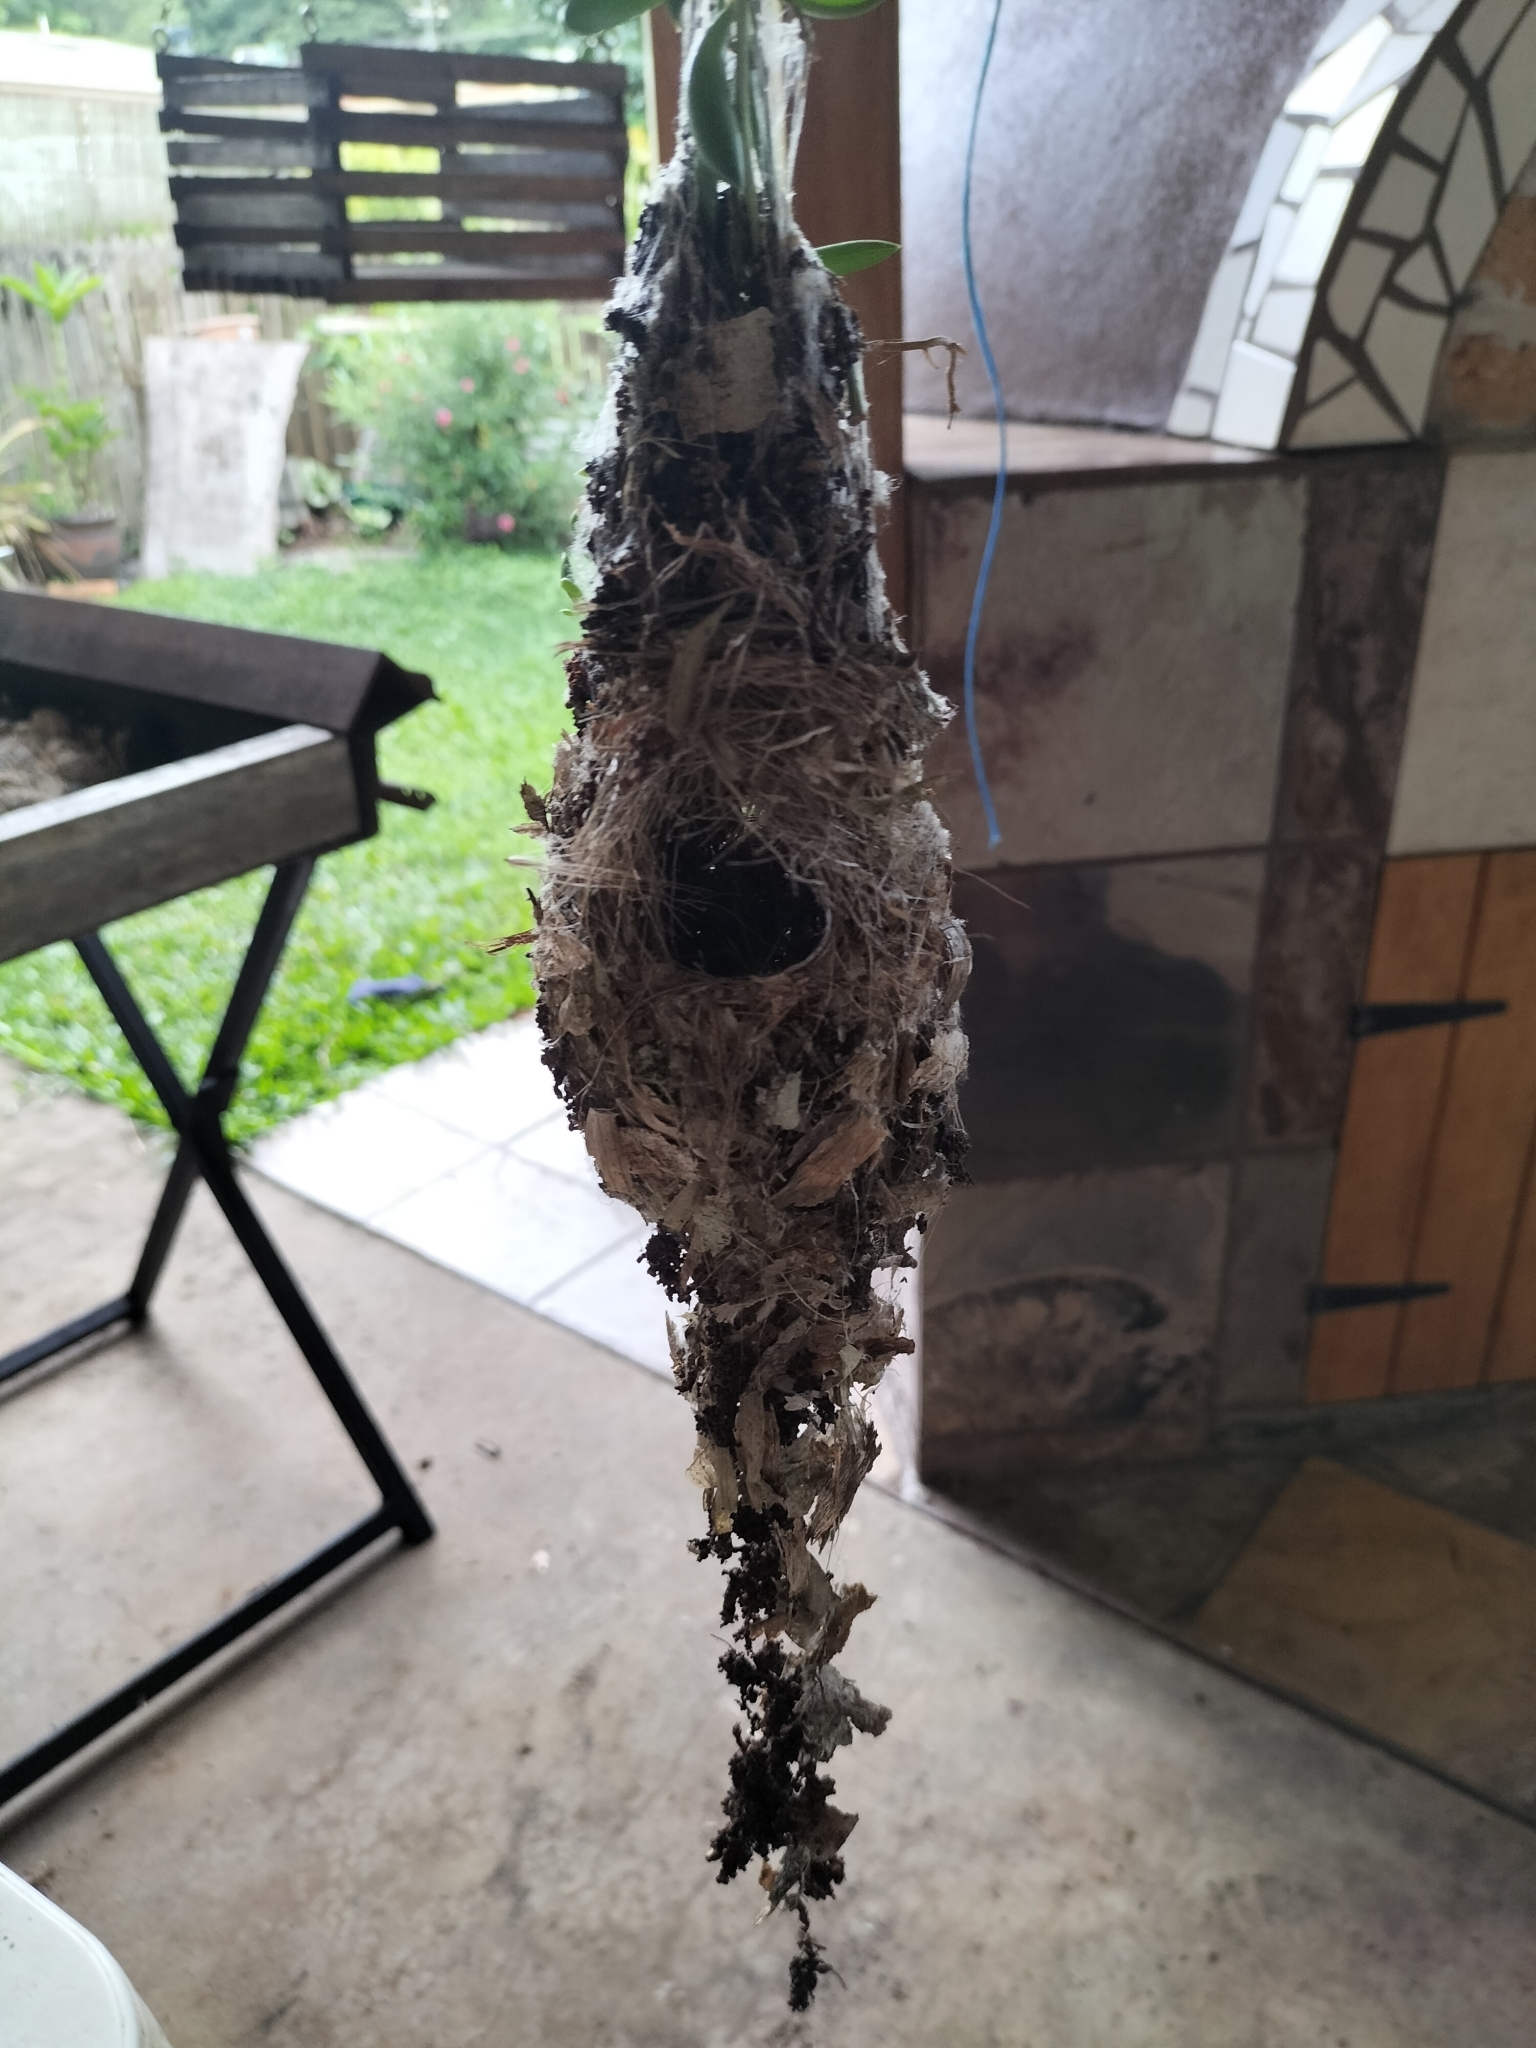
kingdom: Animalia
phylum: Chordata
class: Aves
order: Passeriformes
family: Nectariniidae
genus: Cinnyris
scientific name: Cinnyris
